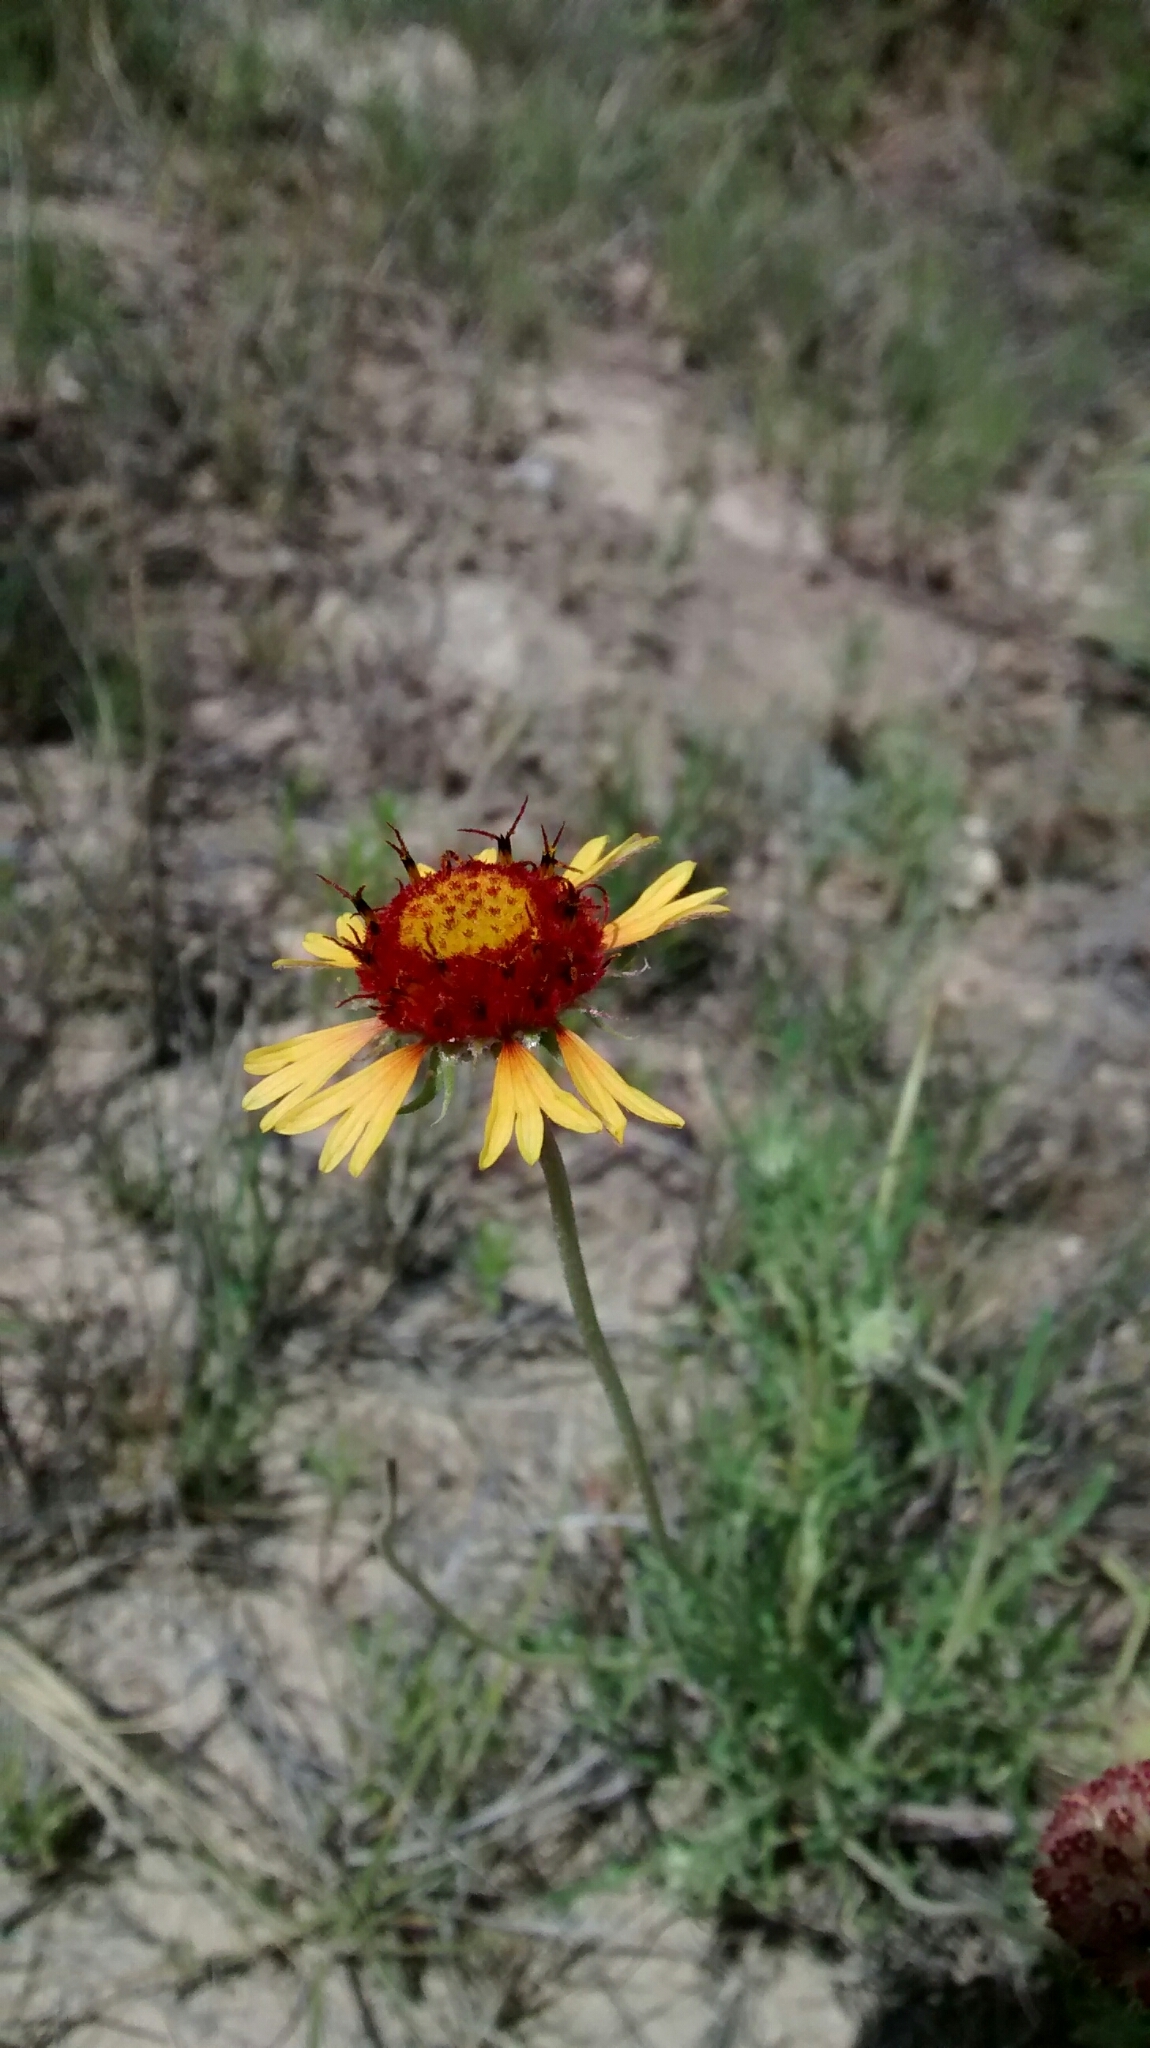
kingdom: Plantae
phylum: Tracheophyta
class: Magnoliopsida
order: Asterales
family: Asteraceae
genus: Gaillardia
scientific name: Gaillardia pinnatifida
